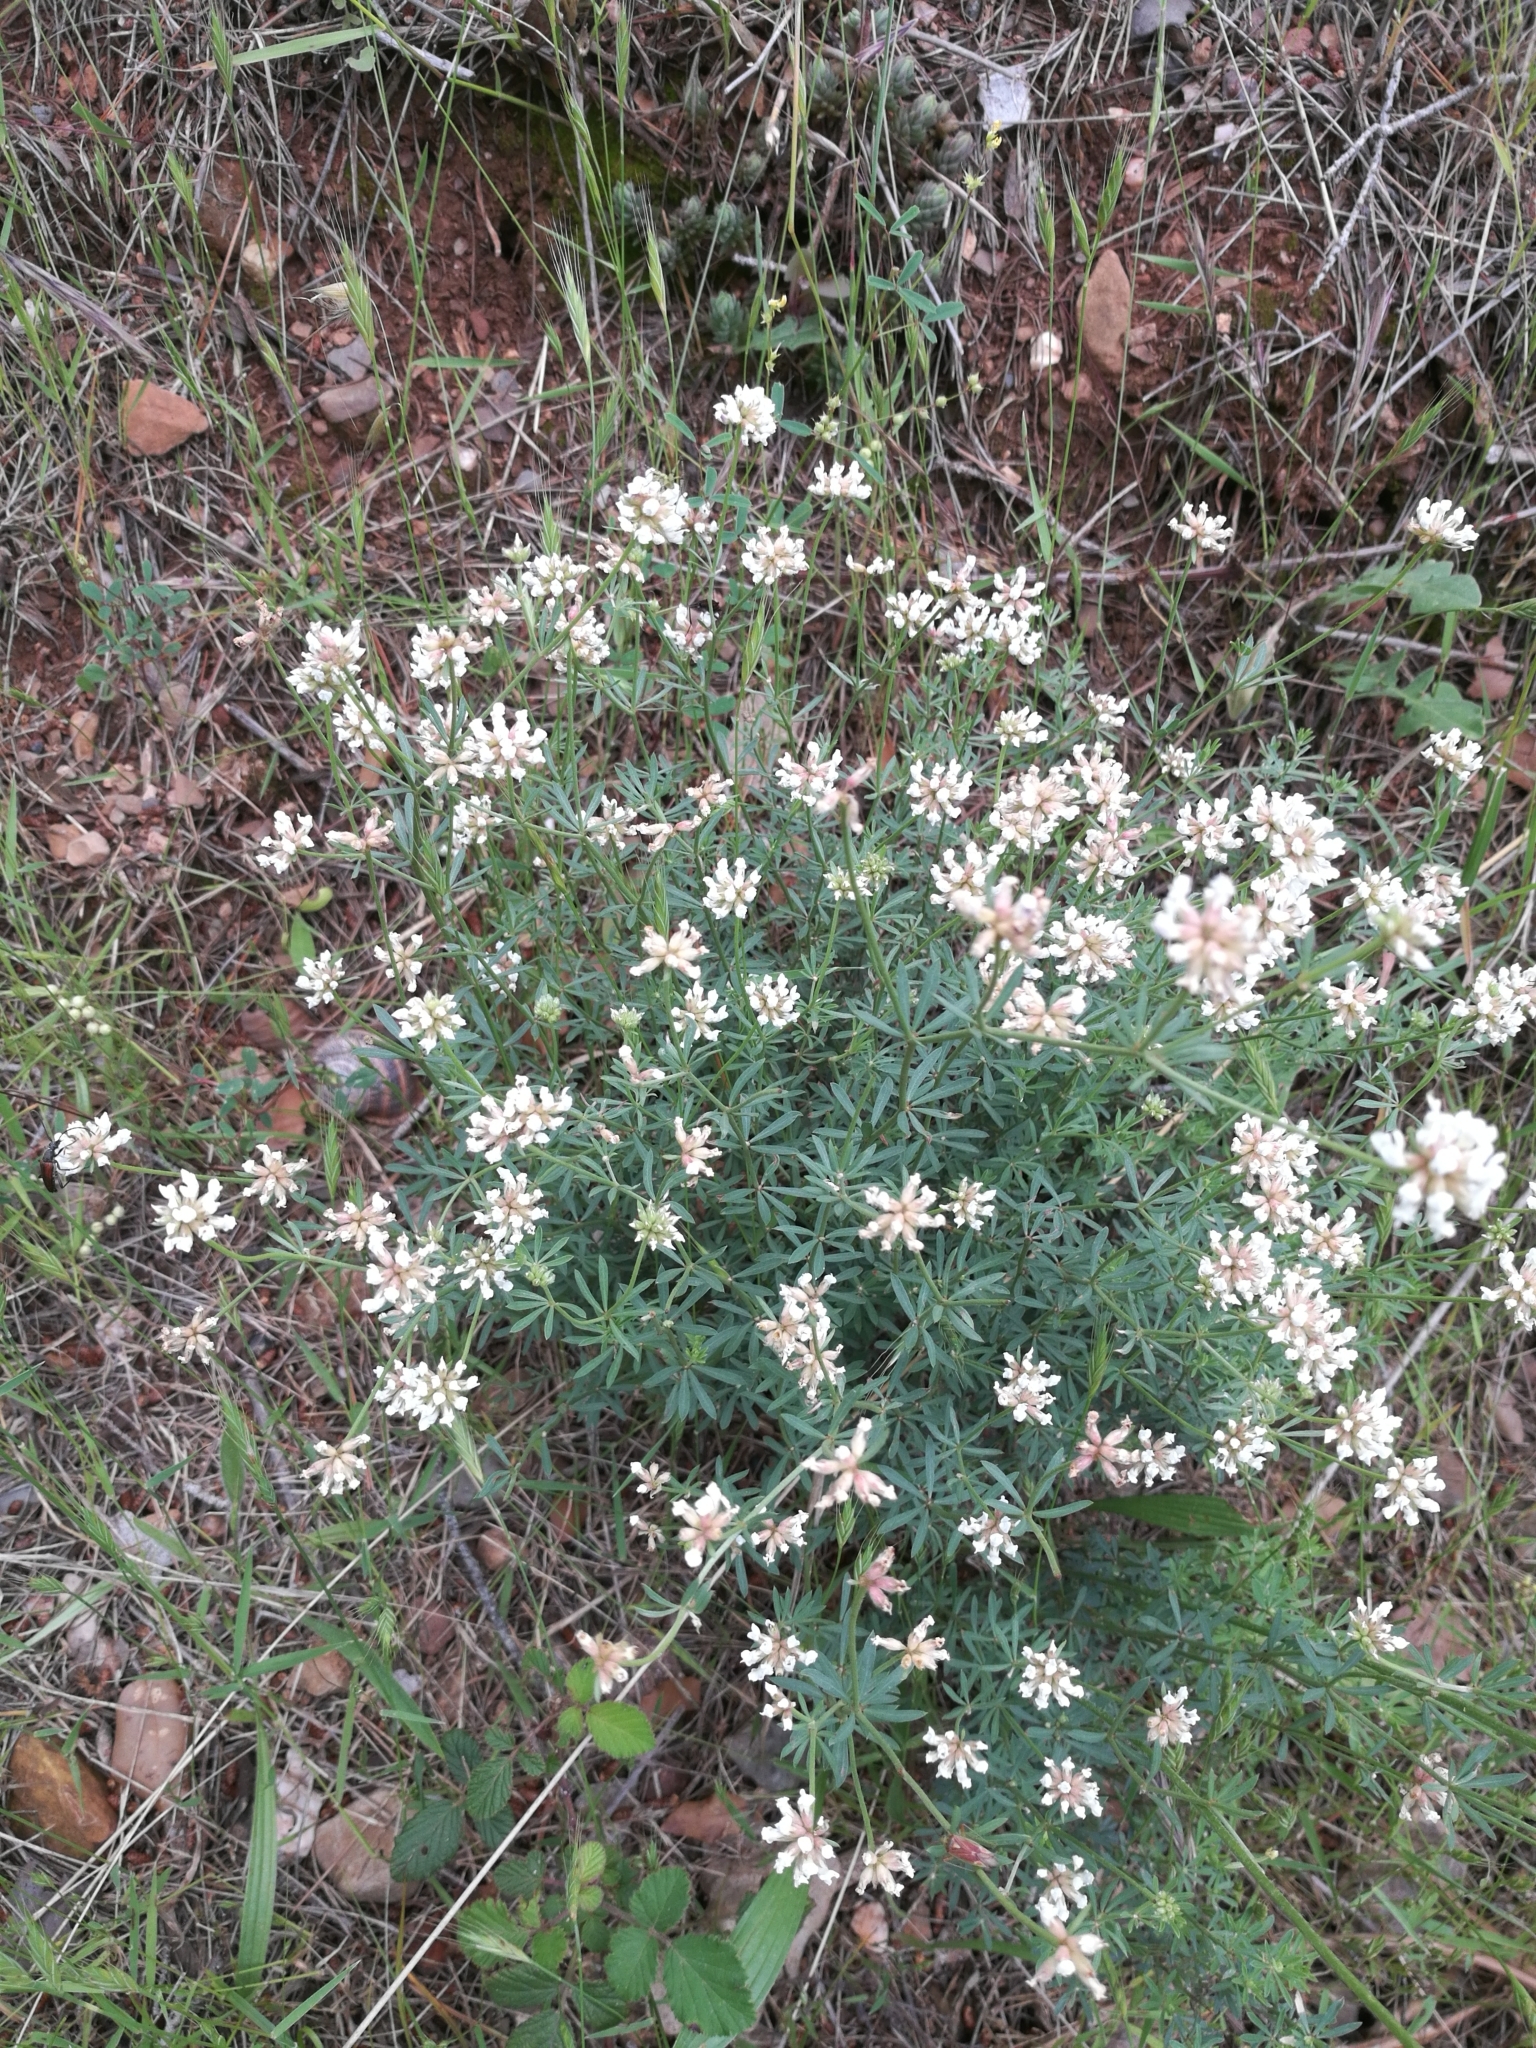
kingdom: Plantae
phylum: Tracheophyta
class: Magnoliopsida
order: Fabales
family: Fabaceae
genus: Lotus
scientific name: Lotus dorycnium
